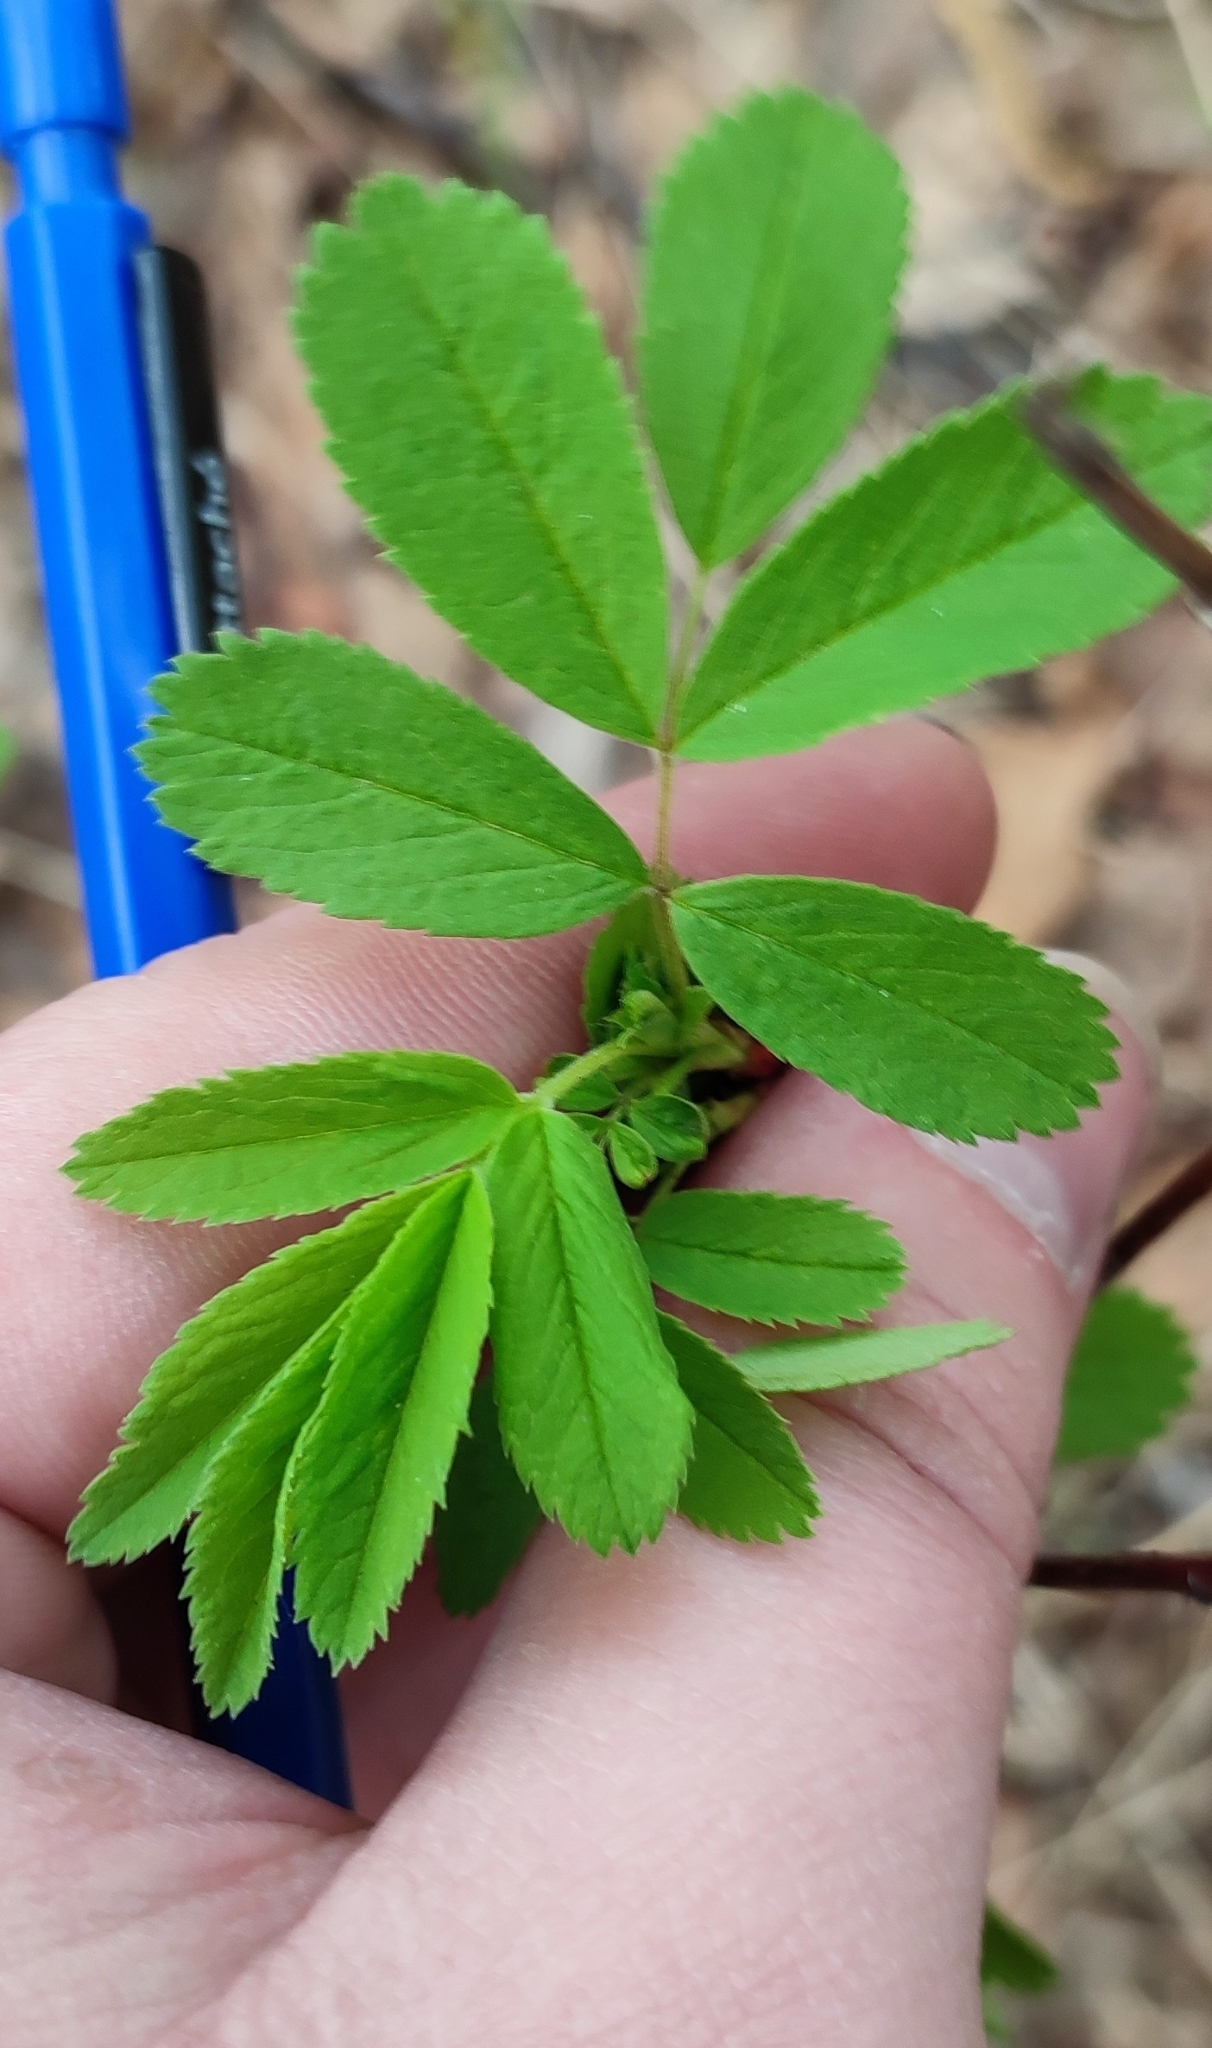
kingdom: Plantae
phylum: Tracheophyta
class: Magnoliopsida
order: Rosales
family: Rosaceae
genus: Rosa
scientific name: Rosa majalis
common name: Cinnamon rose
